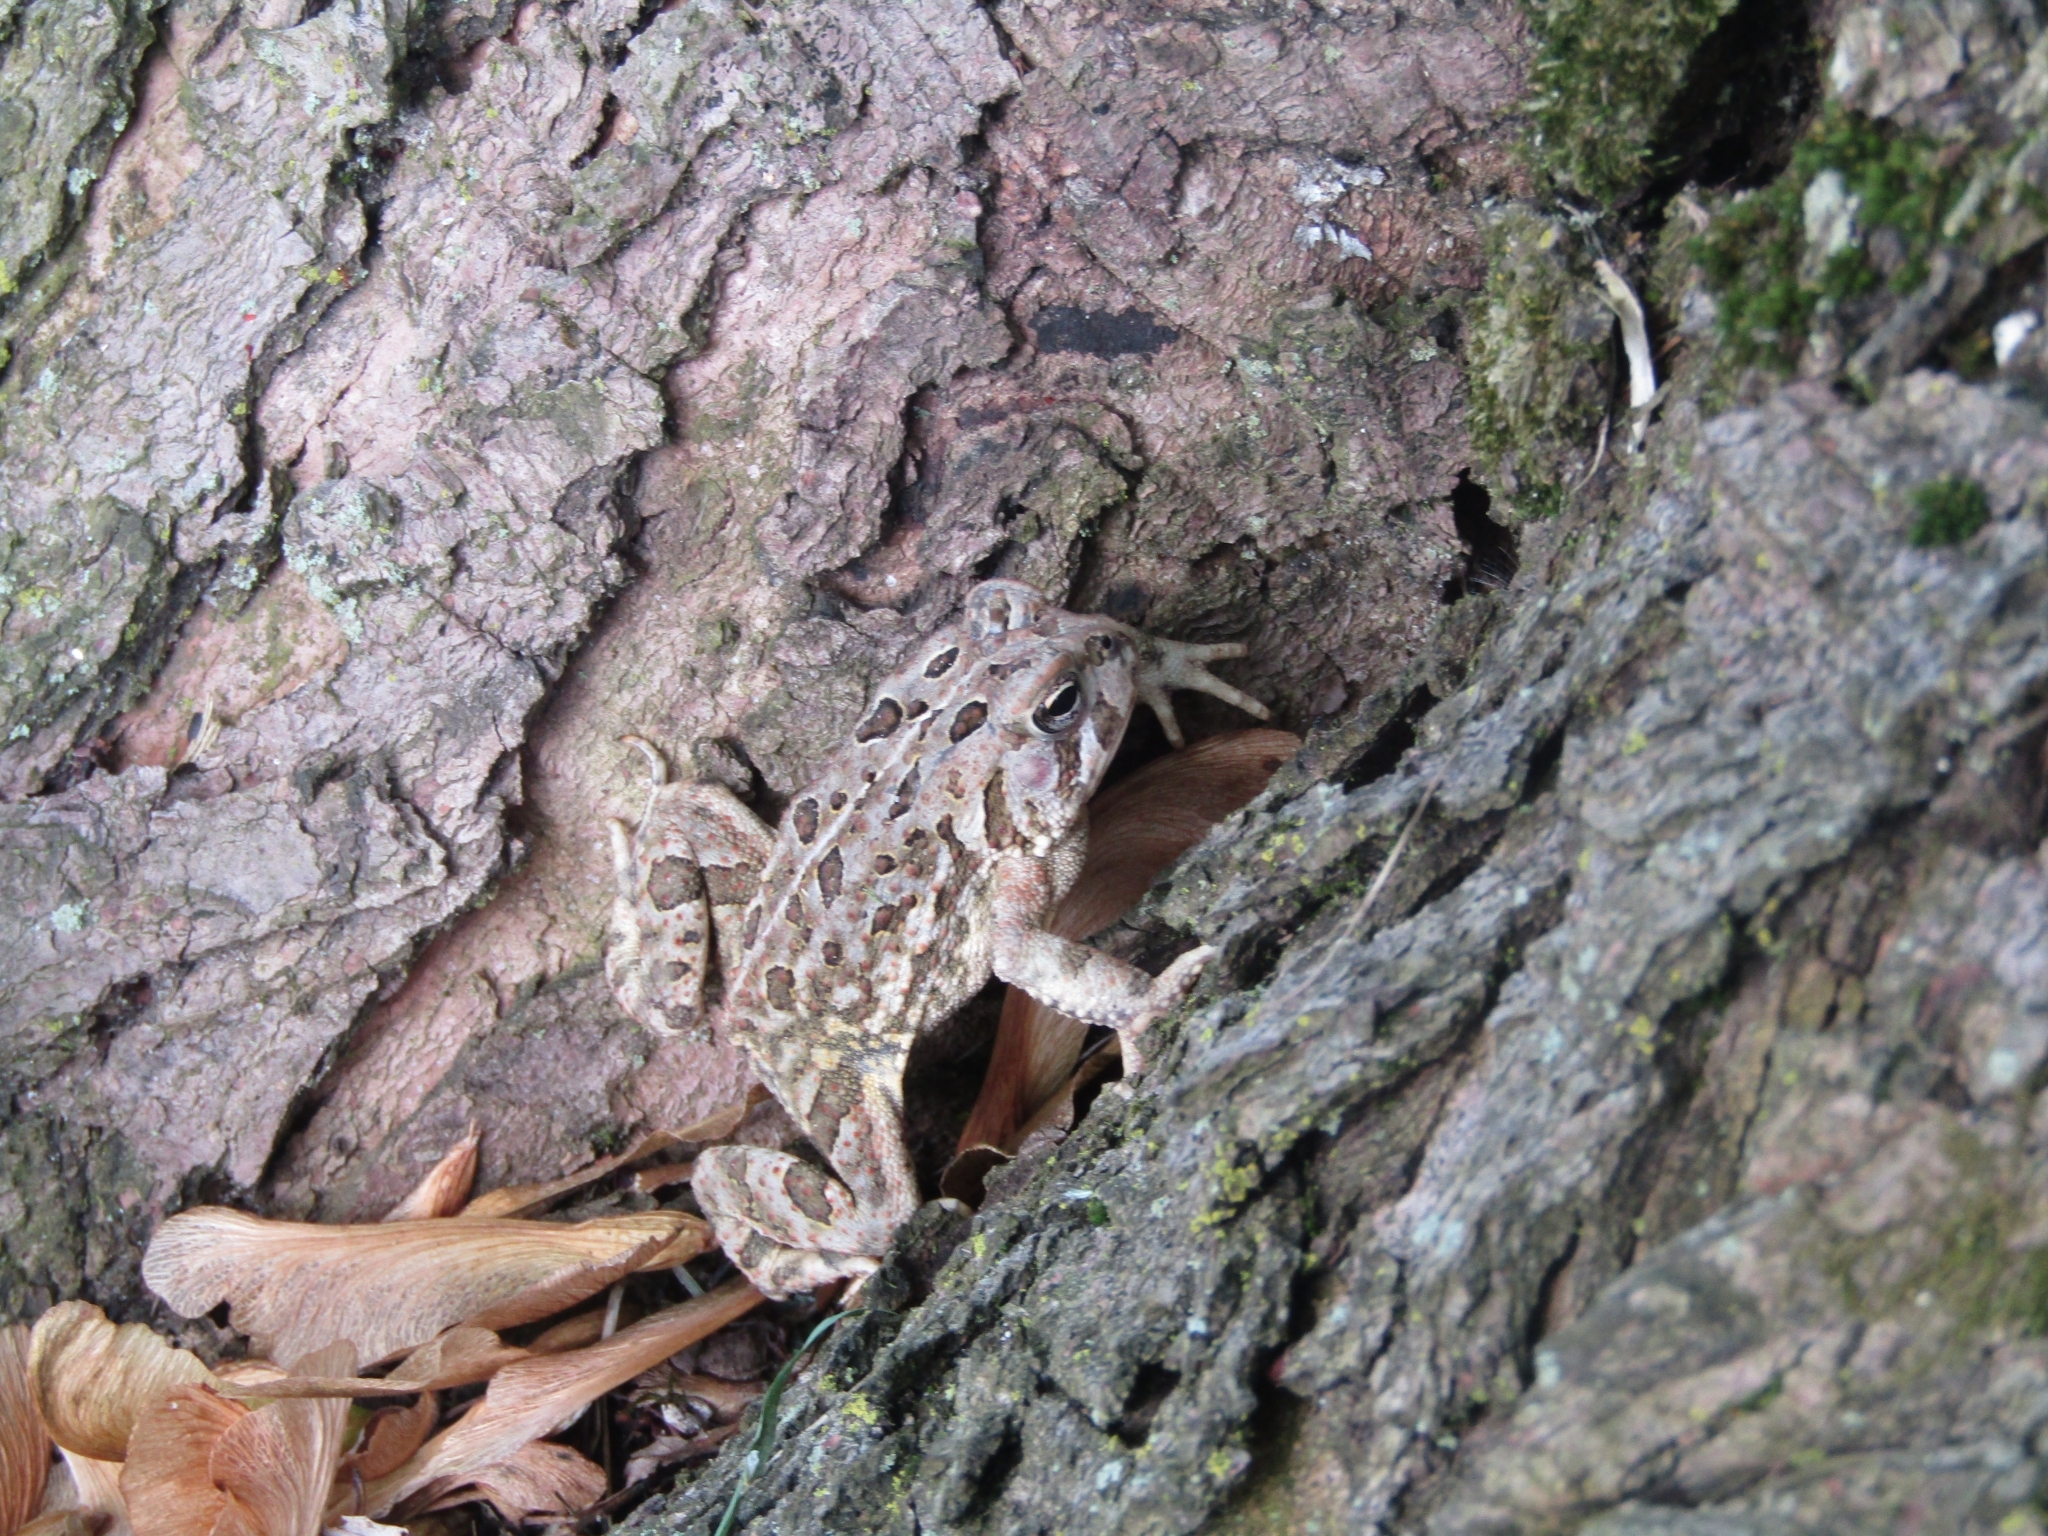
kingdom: Animalia
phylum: Chordata
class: Amphibia
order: Anura
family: Bufonidae
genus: Anaxyrus
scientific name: Anaxyrus fowleri
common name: Fowler's toad
